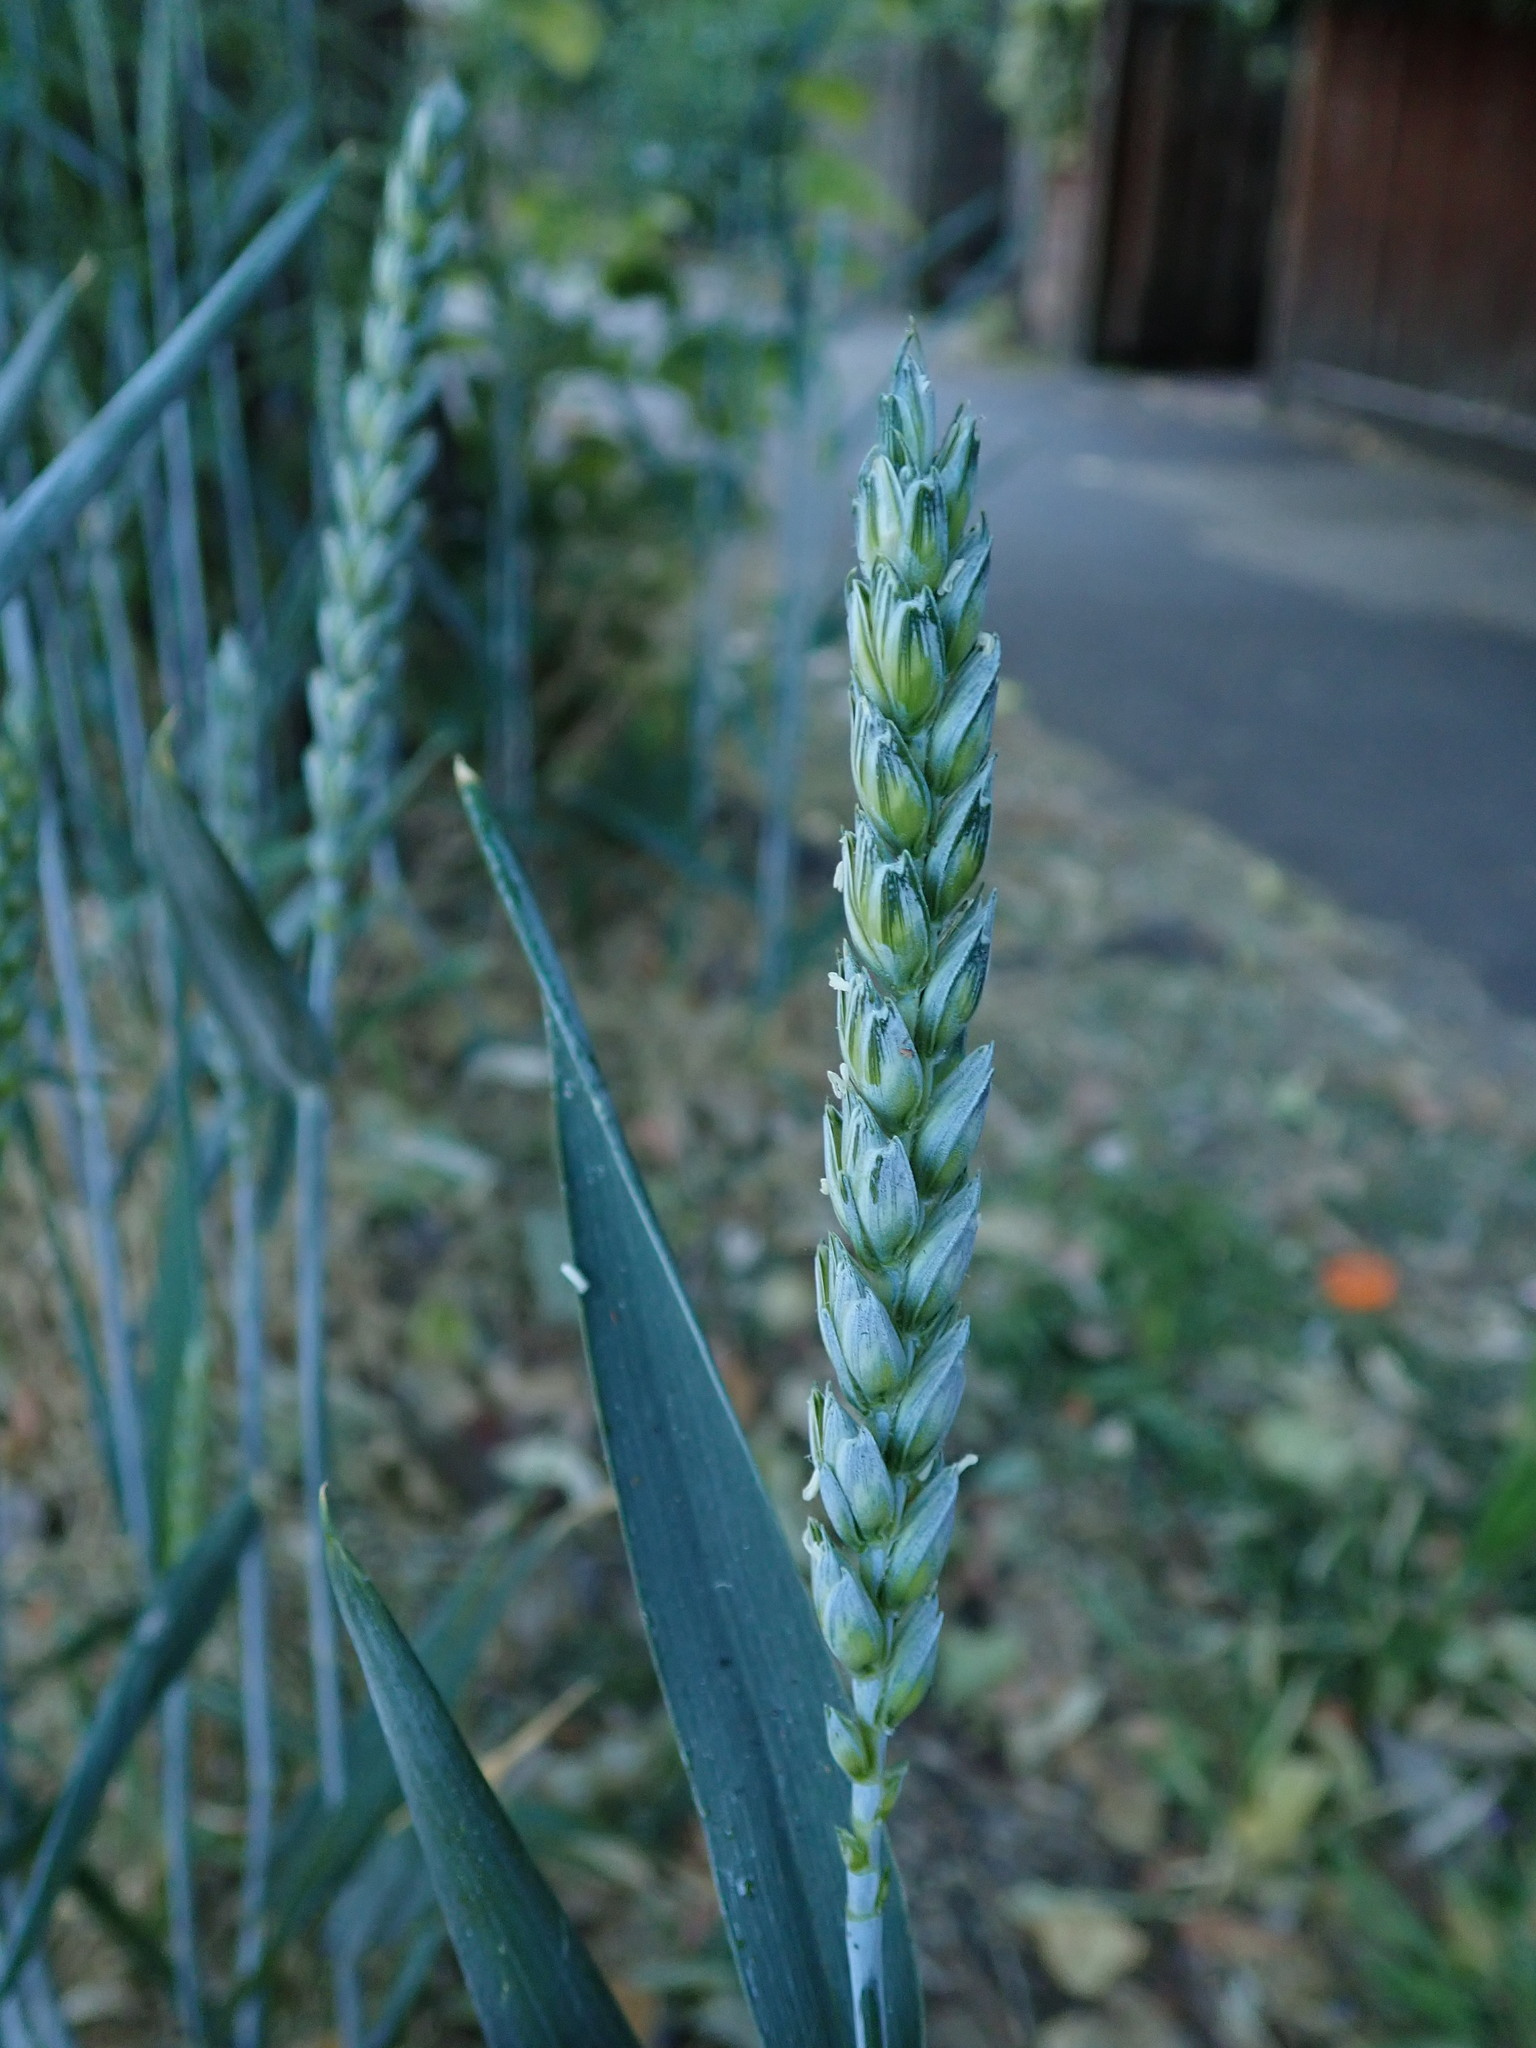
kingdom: Plantae
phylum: Tracheophyta
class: Liliopsida
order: Poales
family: Poaceae
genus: Triticum
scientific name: Triticum aestivum
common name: Common wheat
